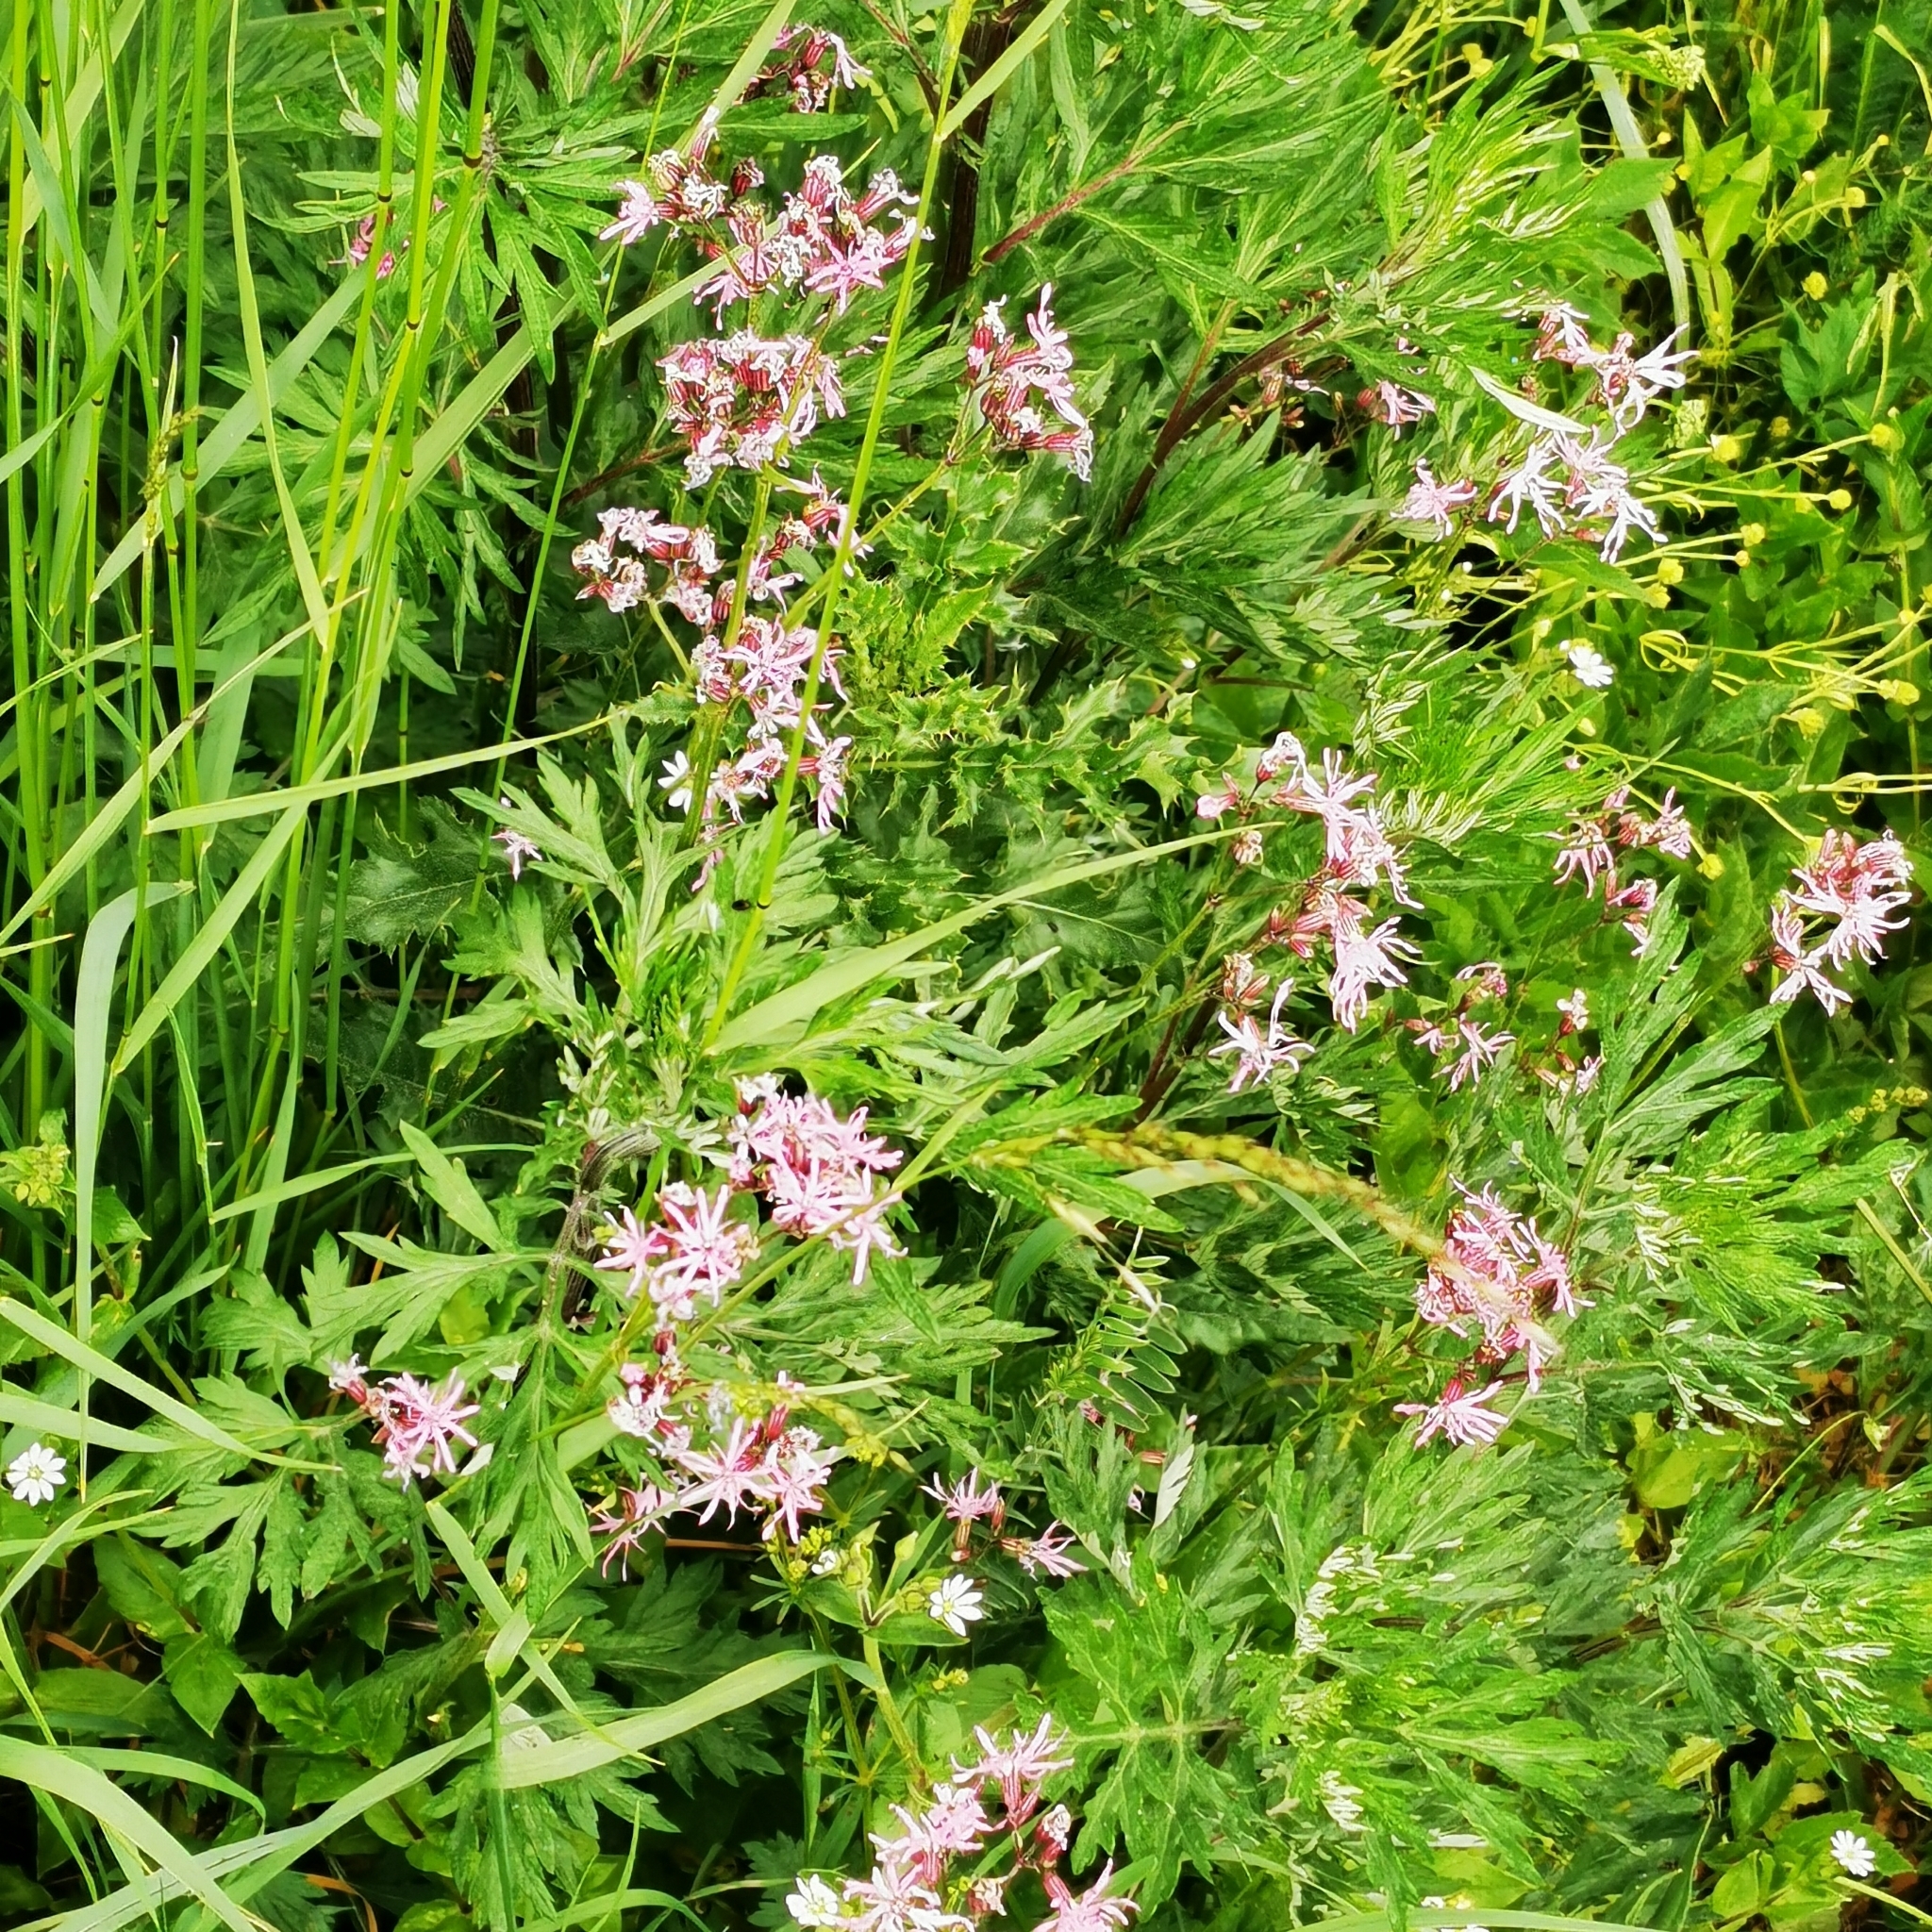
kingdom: Plantae
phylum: Tracheophyta
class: Magnoliopsida
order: Caryophyllales
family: Caryophyllaceae
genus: Silene
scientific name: Silene flos-cuculi
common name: Ragged-robin
